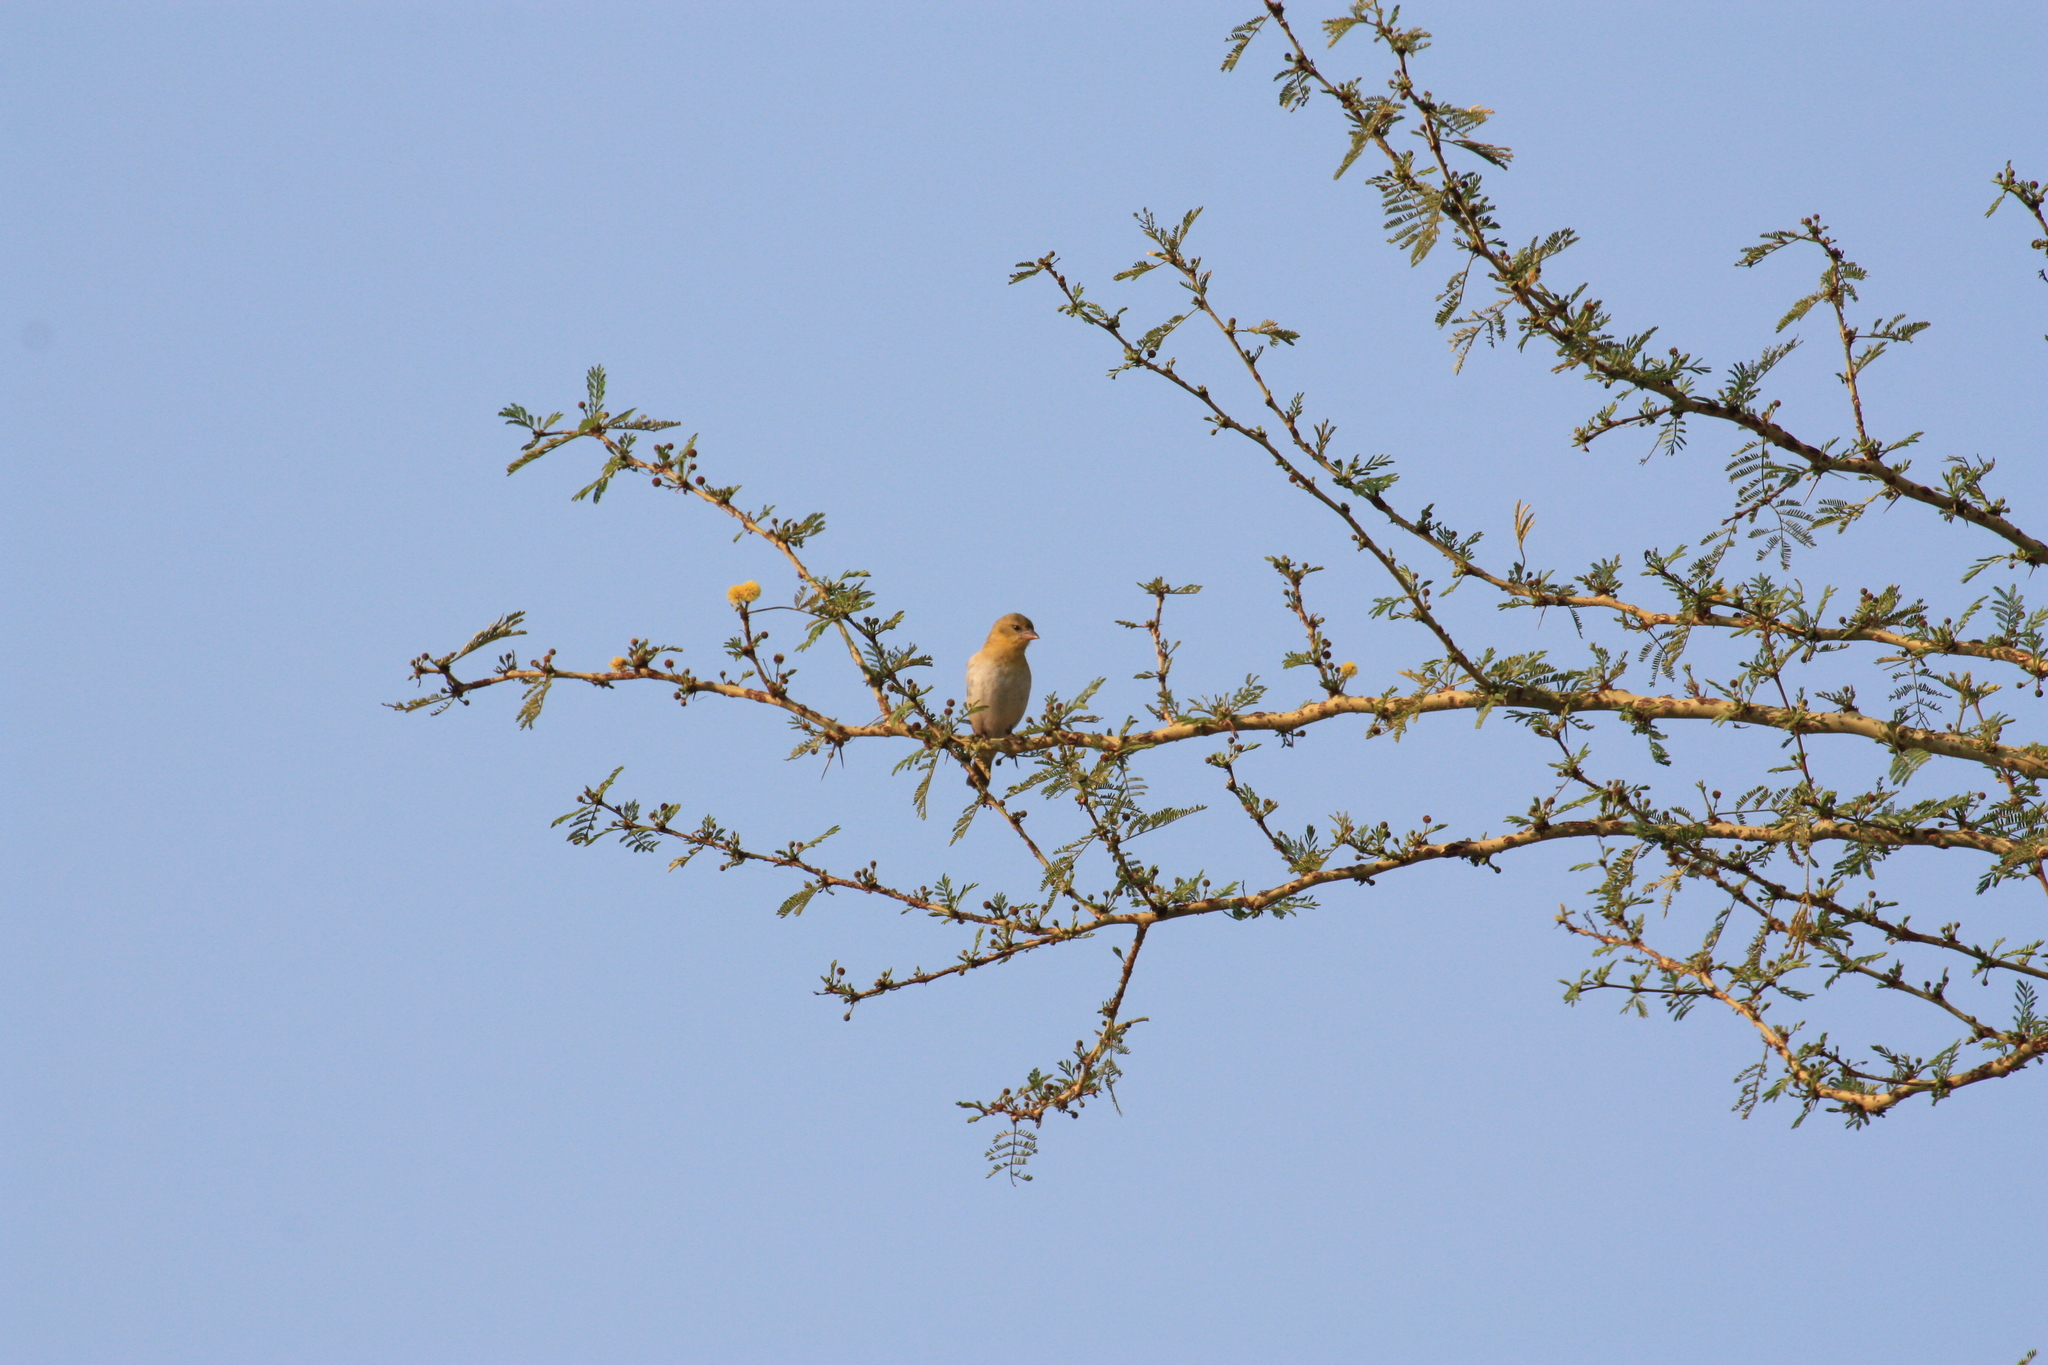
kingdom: Animalia
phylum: Chordata
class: Aves
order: Passeriformes
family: Ploceidae
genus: Ploceus
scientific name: Ploceus velatus
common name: Southern masked weaver
